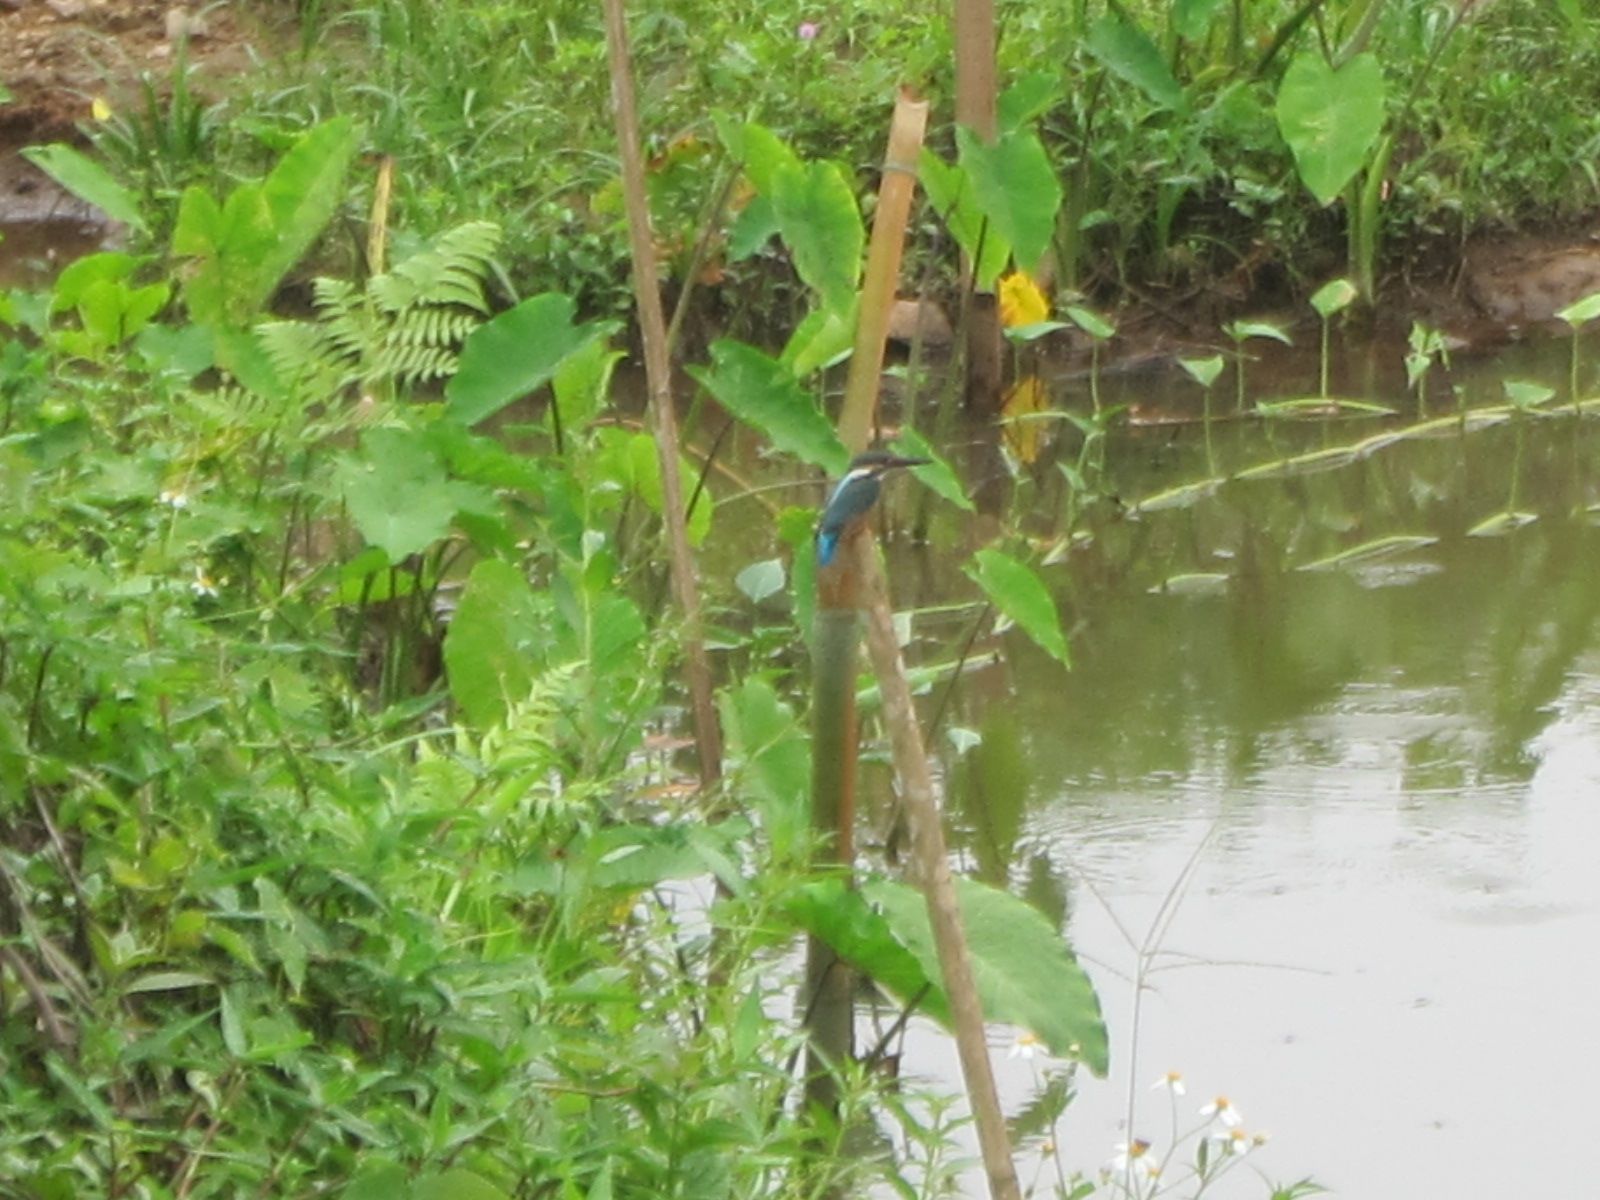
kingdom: Animalia
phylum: Chordata
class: Aves
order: Coraciiformes
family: Alcedinidae
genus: Alcedo
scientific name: Alcedo atthis
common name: Common kingfisher
